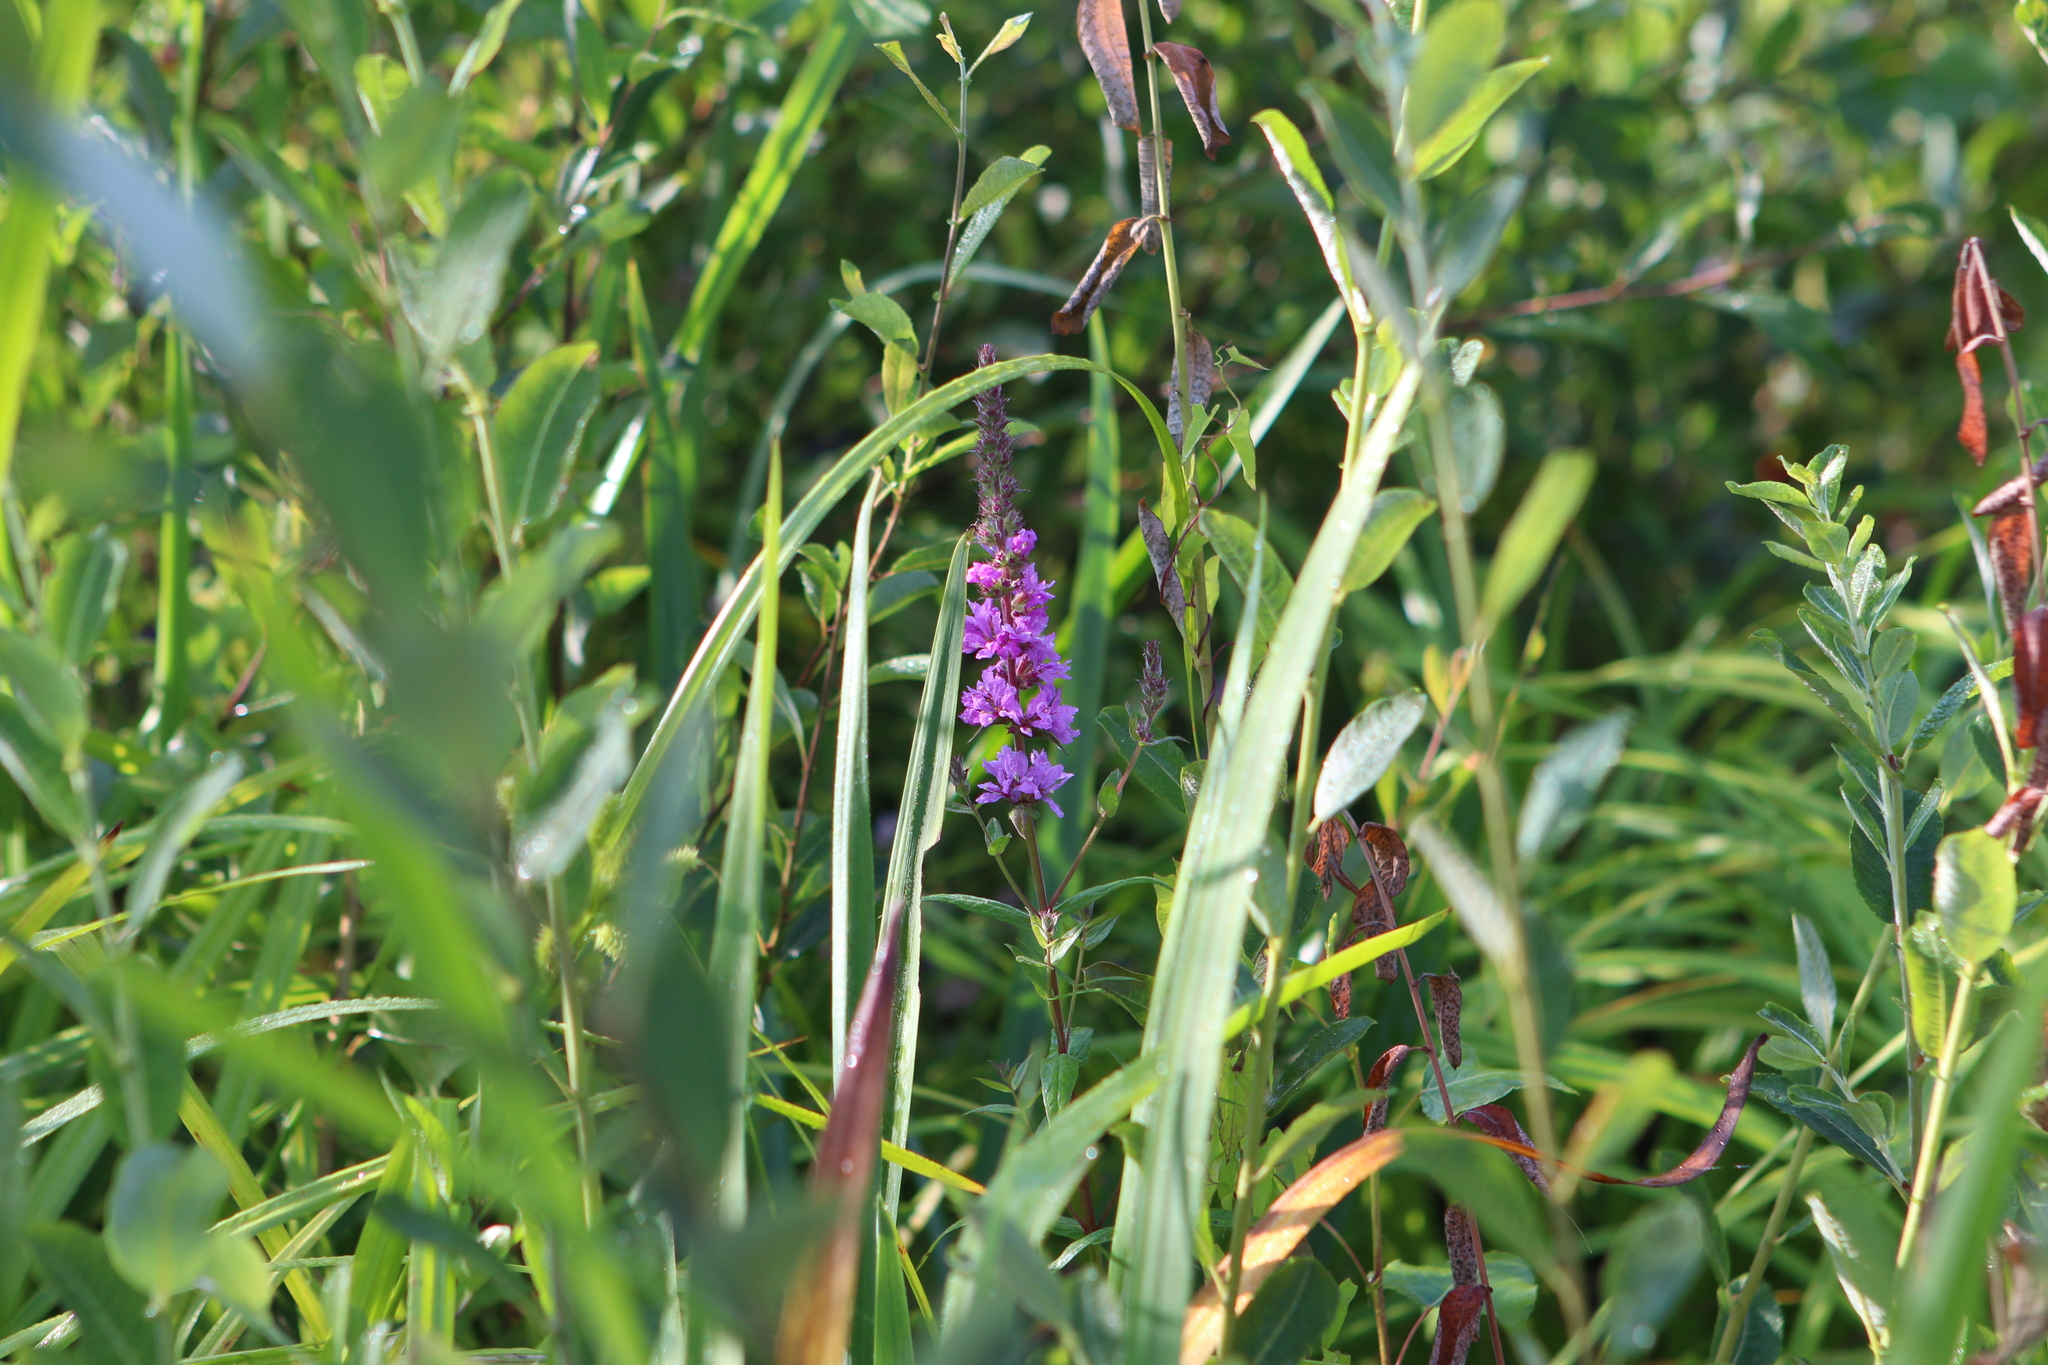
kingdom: Plantae
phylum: Tracheophyta
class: Magnoliopsida
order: Myrtales
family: Lythraceae
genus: Lythrum
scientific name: Lythrum salicaria
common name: Purple loosestrife
